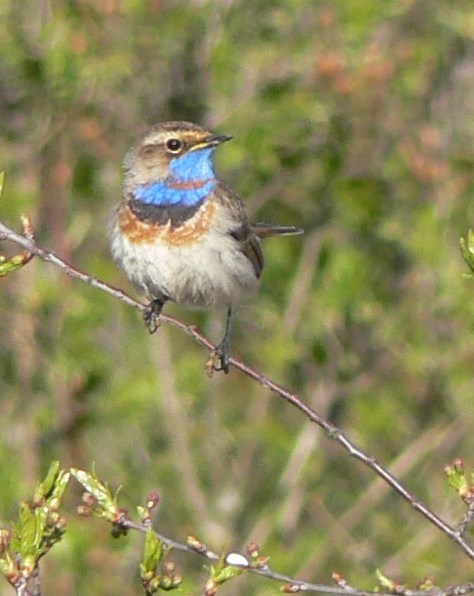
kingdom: Animalia
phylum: Chordata
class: Aves
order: Passeriformes
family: Muscicapidae
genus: Luscinia
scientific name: Luscinia svecica
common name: Bluethroat
